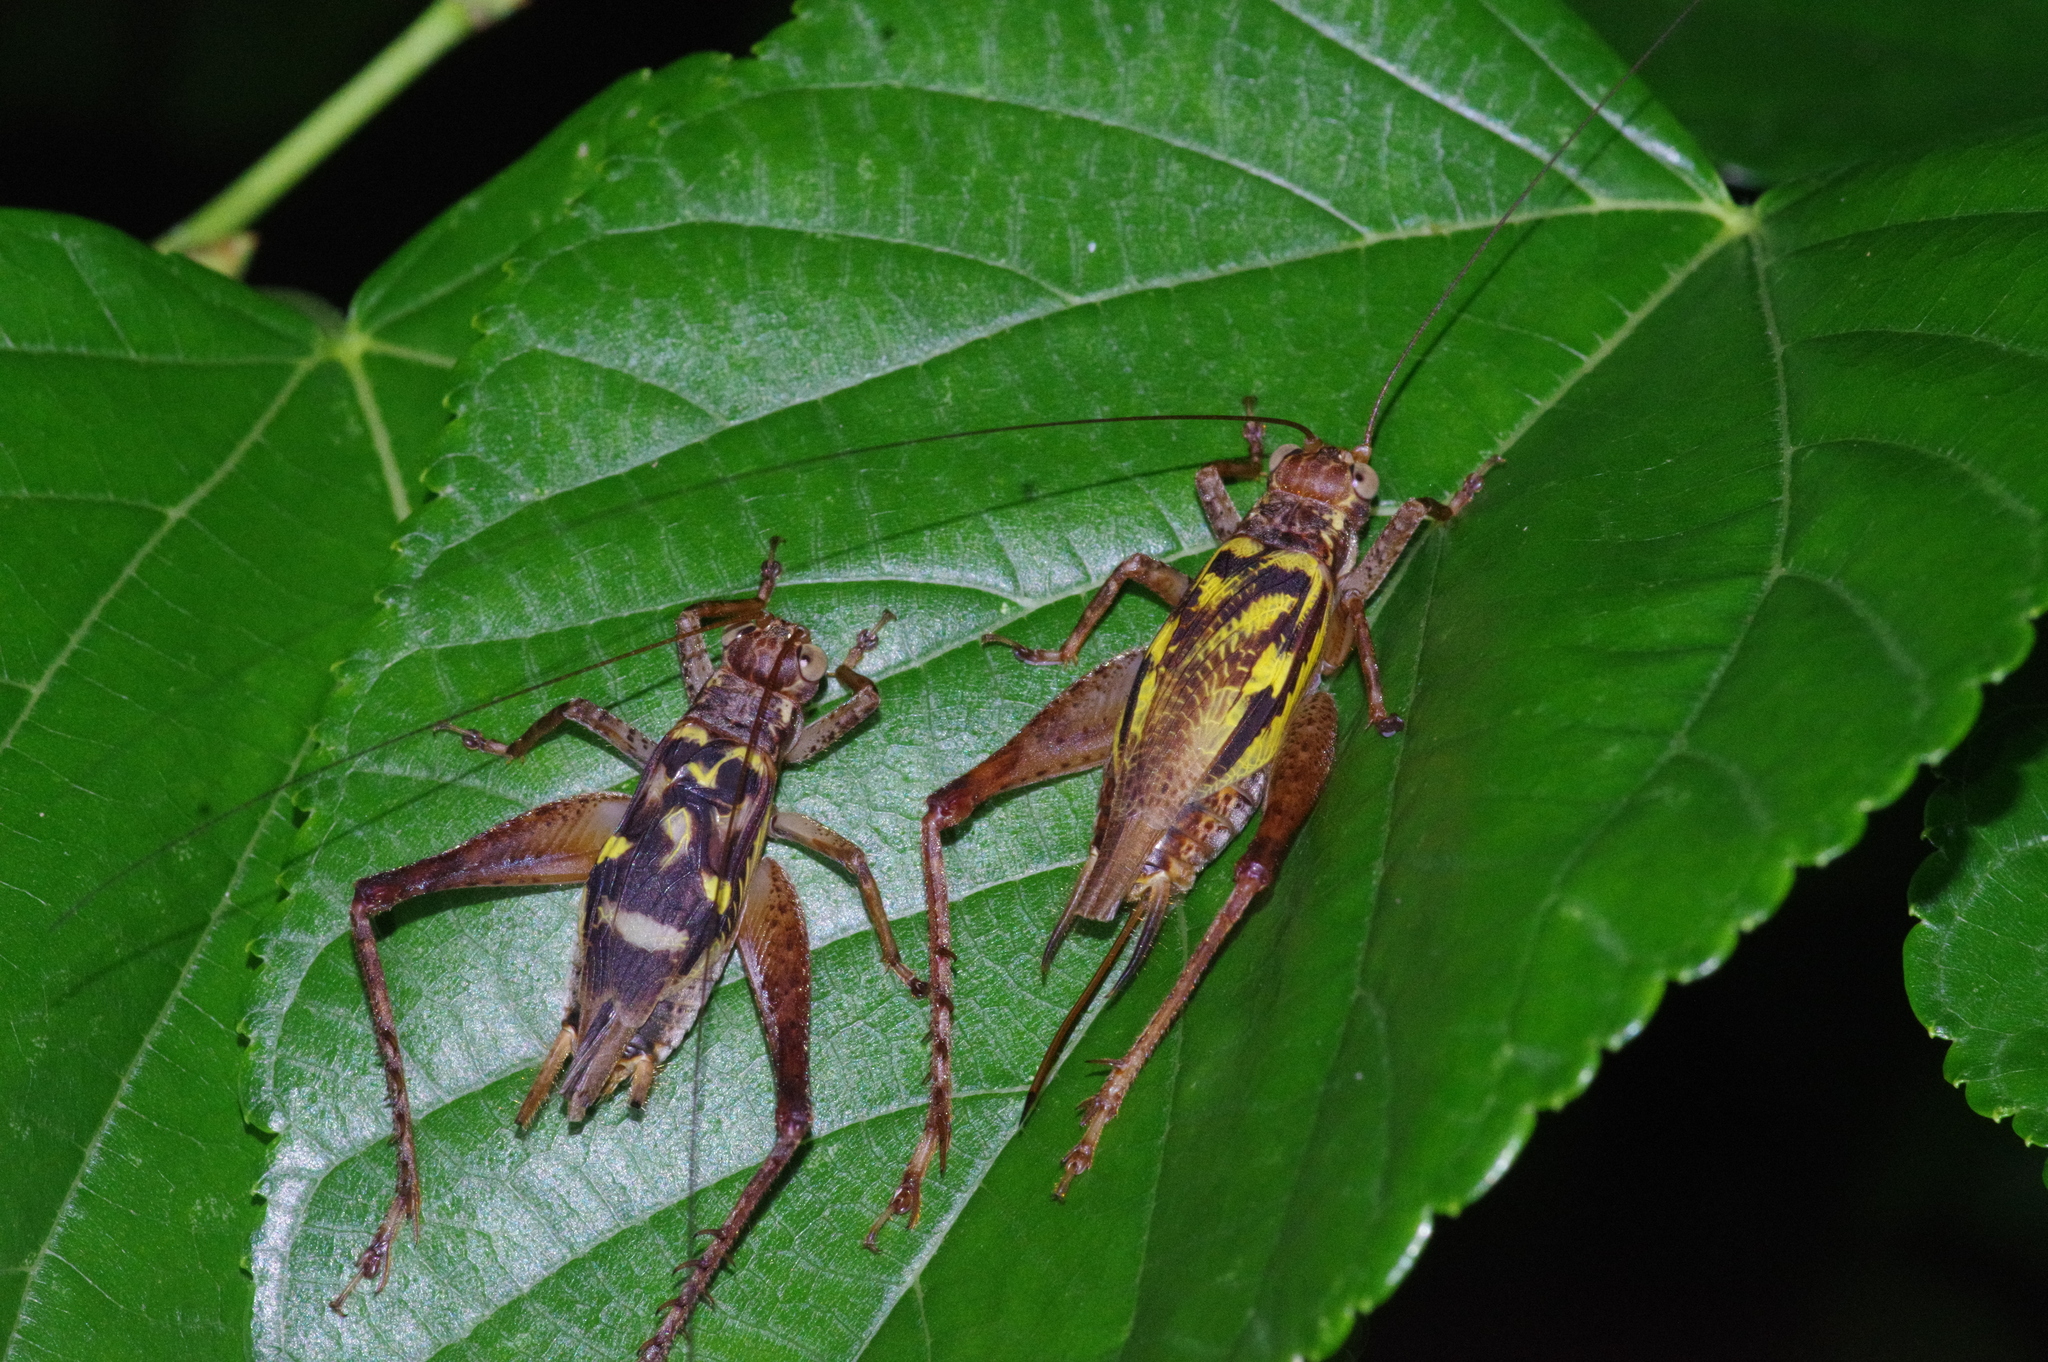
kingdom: Animalia
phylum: Arthropoda
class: Insecta
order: Orthoptera
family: Gryllidae
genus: Cardiodactylus
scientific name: Cardiodactylus guttulus
